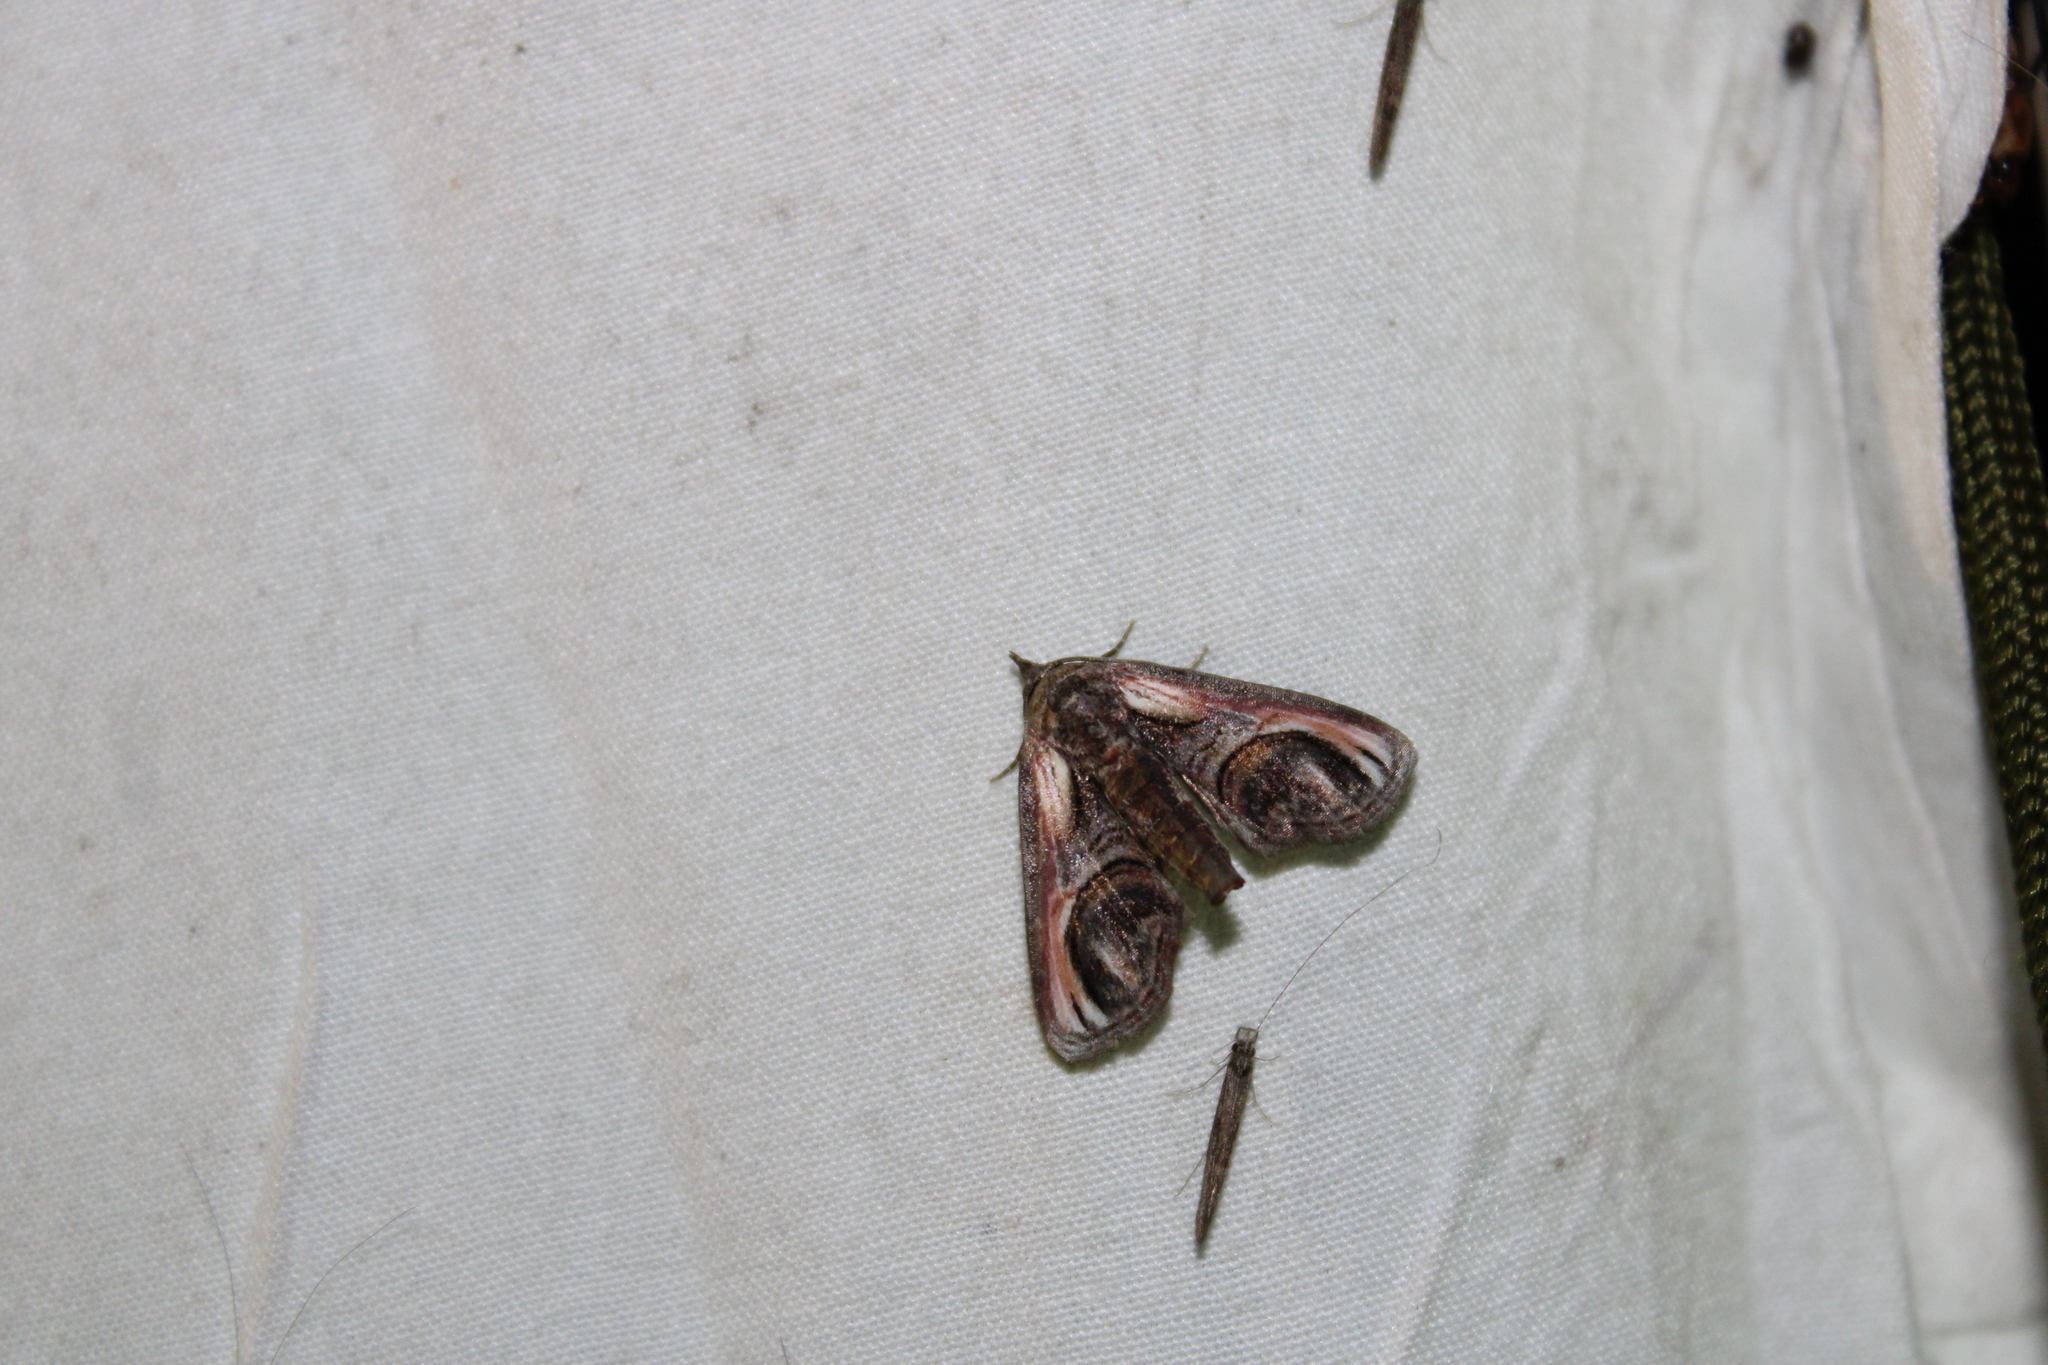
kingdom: Animalia
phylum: Arthropoda
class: Insecta
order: Lepidoptera
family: Euteliidae
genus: Paectes
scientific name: Paectes oculatrix
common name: Eyed paectes moth
